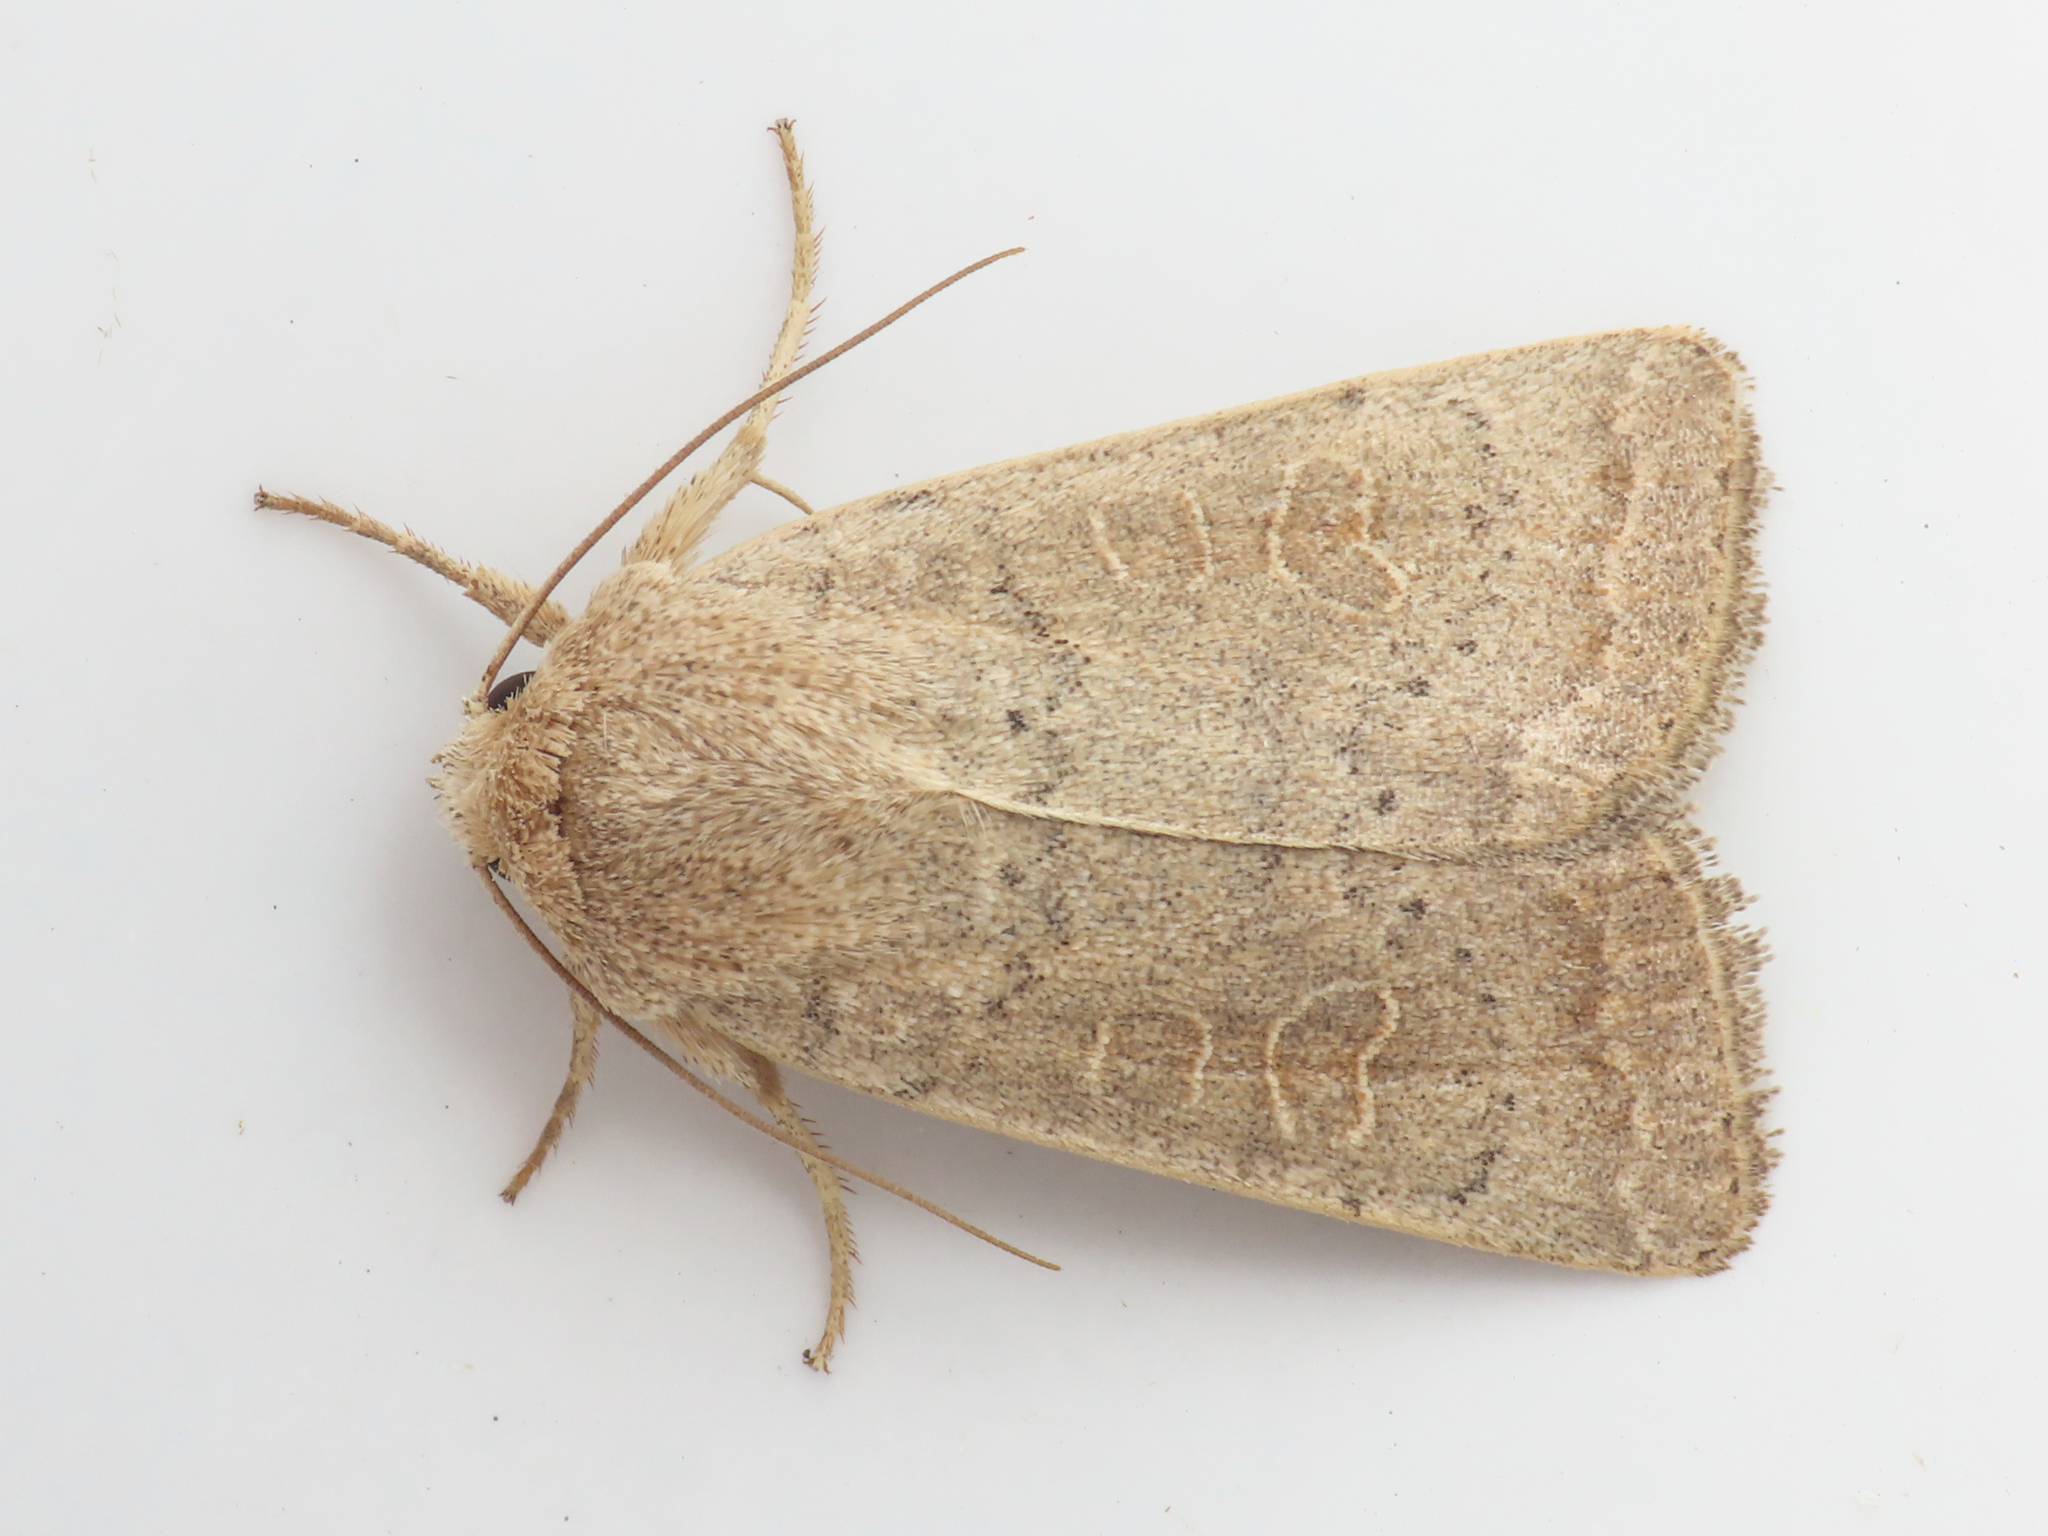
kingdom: Animalia
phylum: Arthropoda
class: Insecta
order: Lepidoptera
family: Noctuidae
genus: Hoplodrina
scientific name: Hoplodrina ambigua
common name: Vine's rustic
